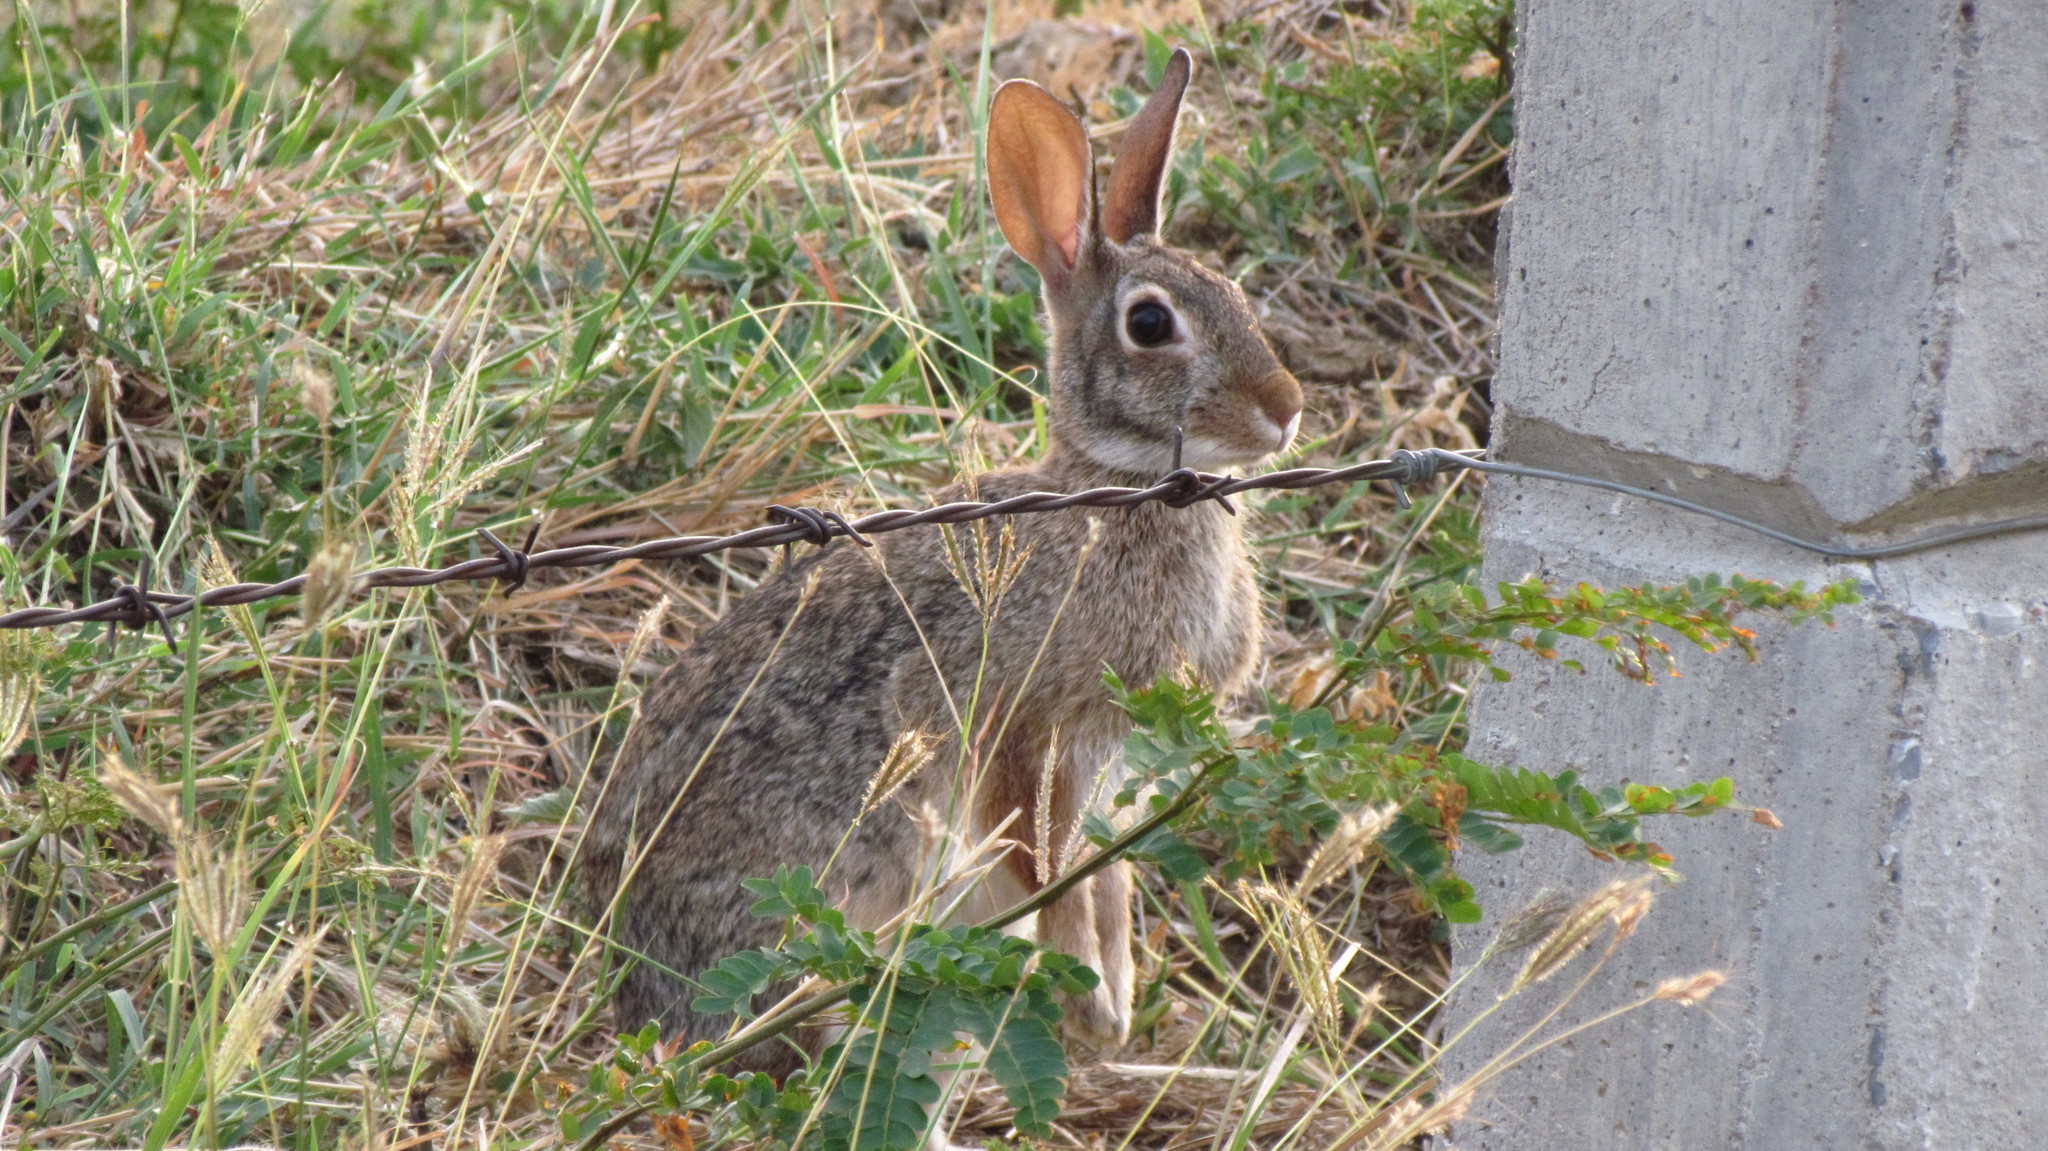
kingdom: Animalia
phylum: Chordata
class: Mammalia
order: Lagomorpha
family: Leporidae
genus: Sylvilagus
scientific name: Sylvilagus floridanus
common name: Eastern cottontail
